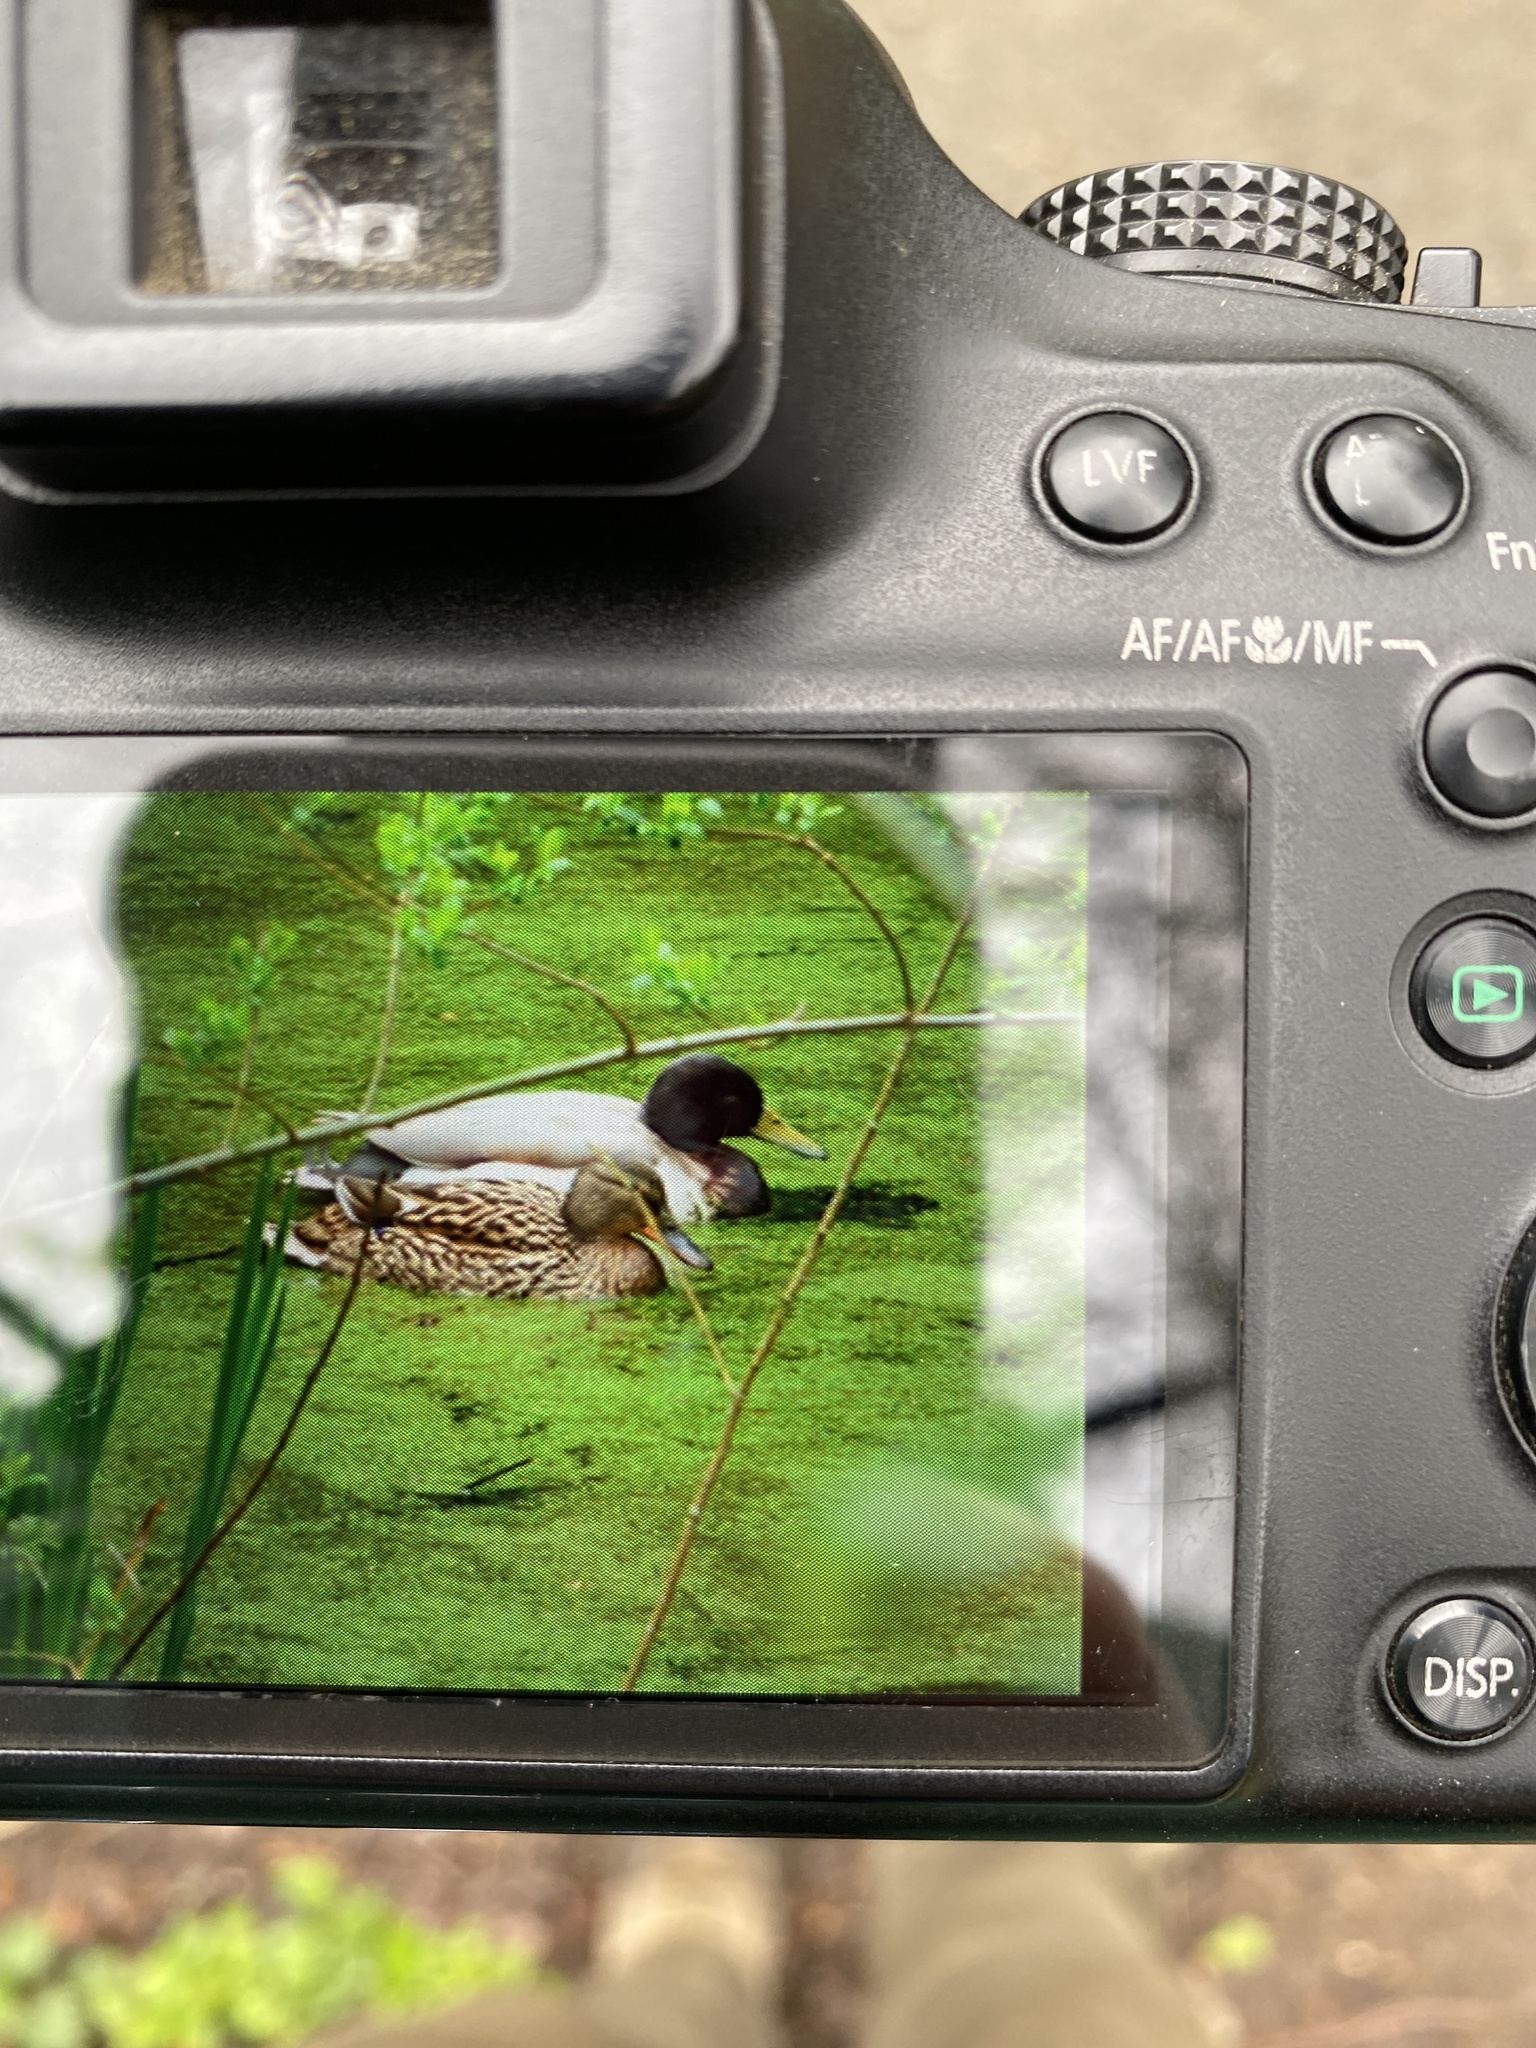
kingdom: Animalia
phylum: Chordata
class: Aves
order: Anseriformes
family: Anatidae
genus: Anas
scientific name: Anas platyrhynchos
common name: Mallard
